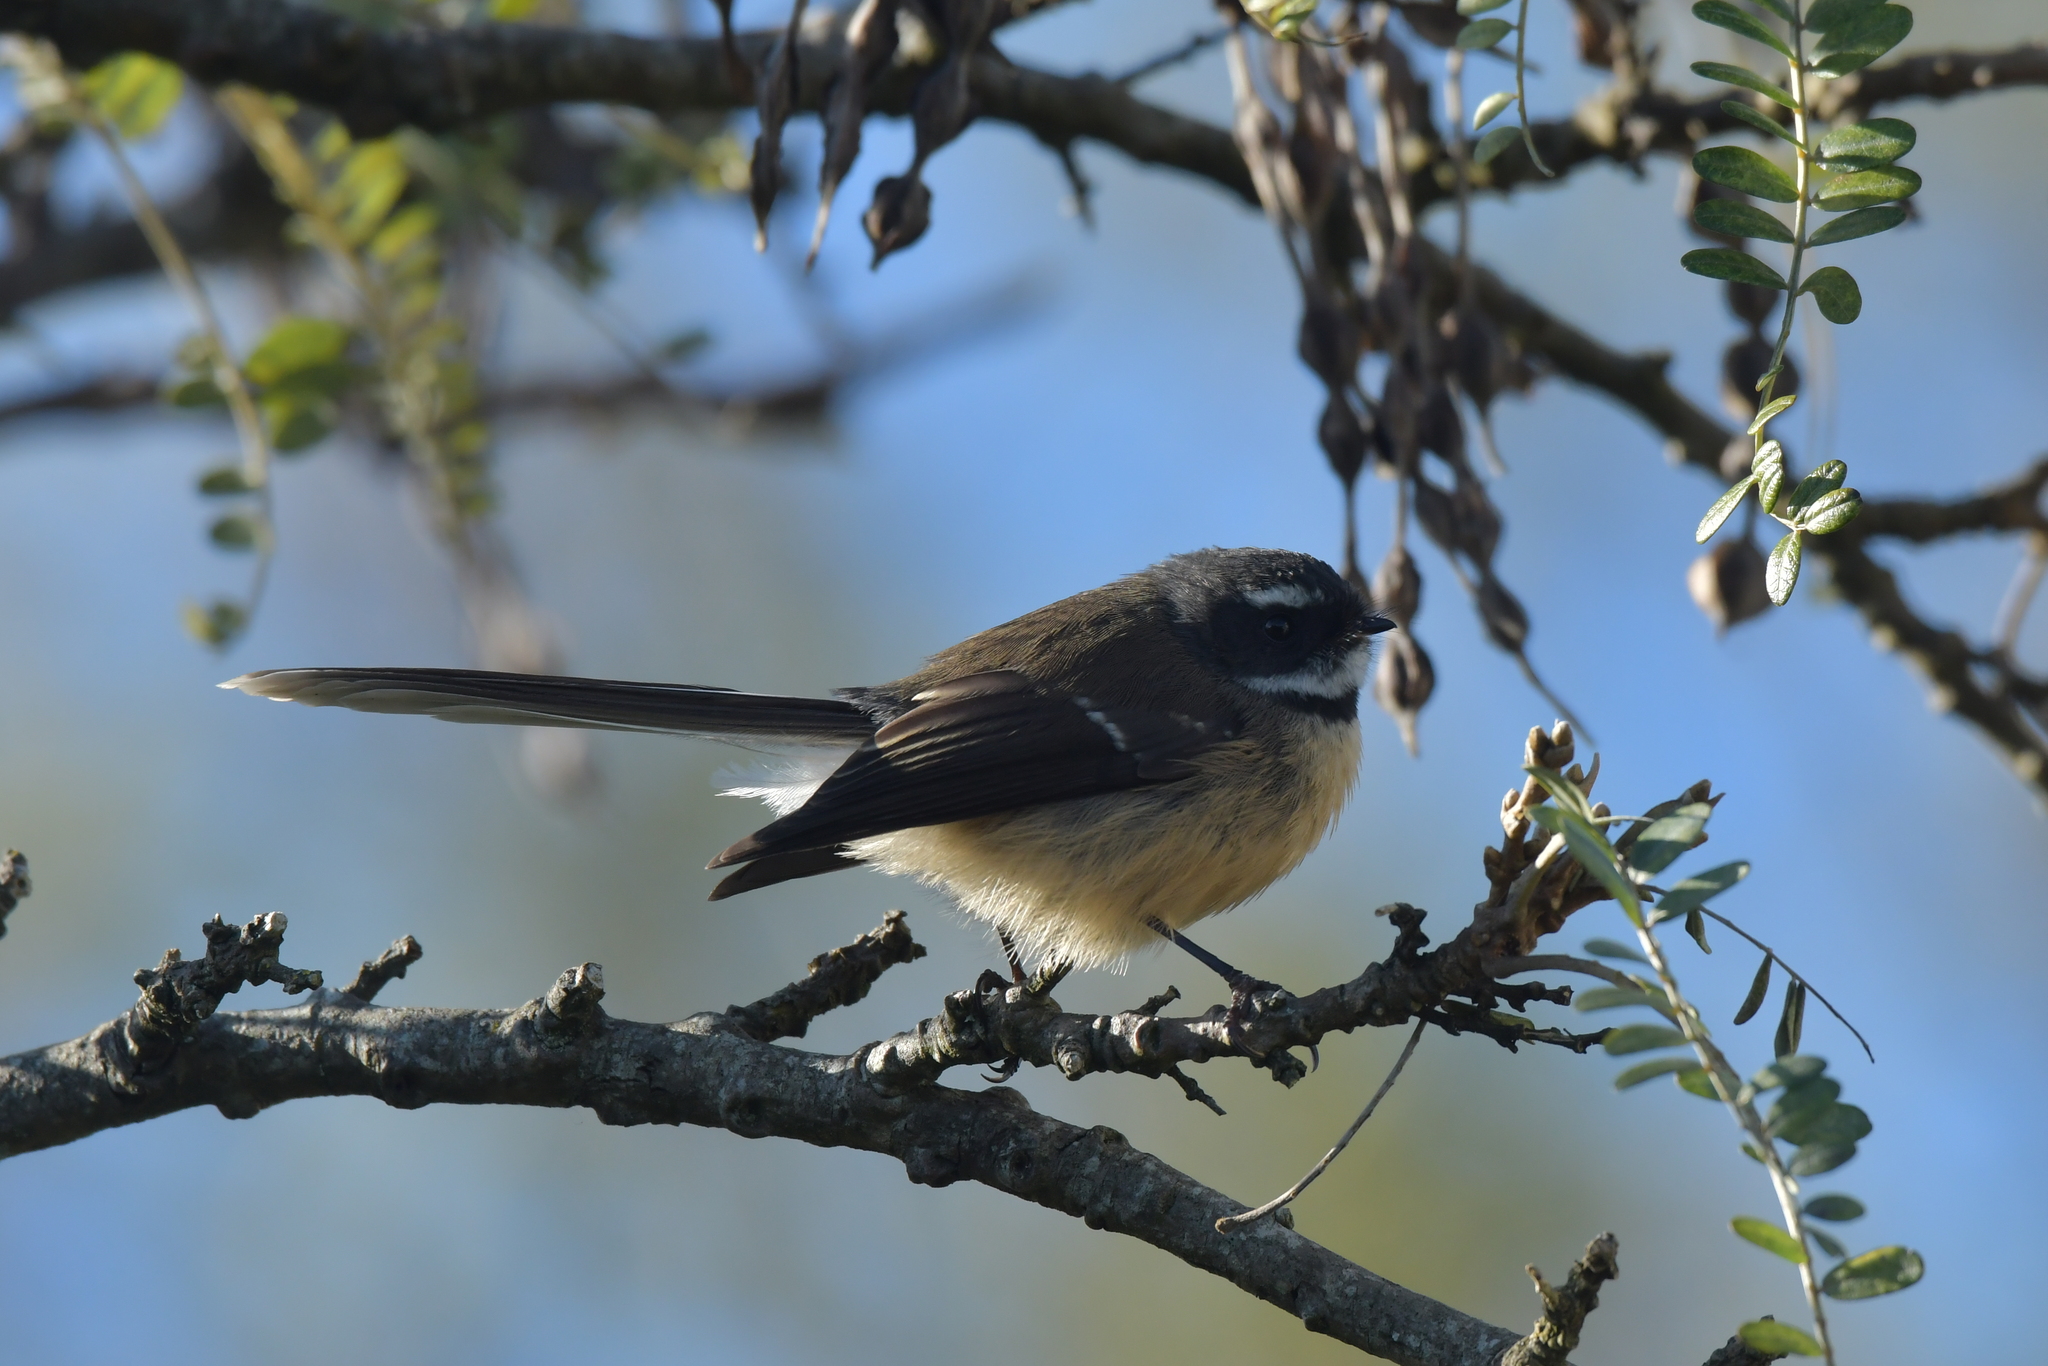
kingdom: Animalia
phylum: Chordata
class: Aves
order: Passeriformes
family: Rhipiduridae
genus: Rhipidura
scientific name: Rhipidura fuliginosa
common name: New zealand fantail
